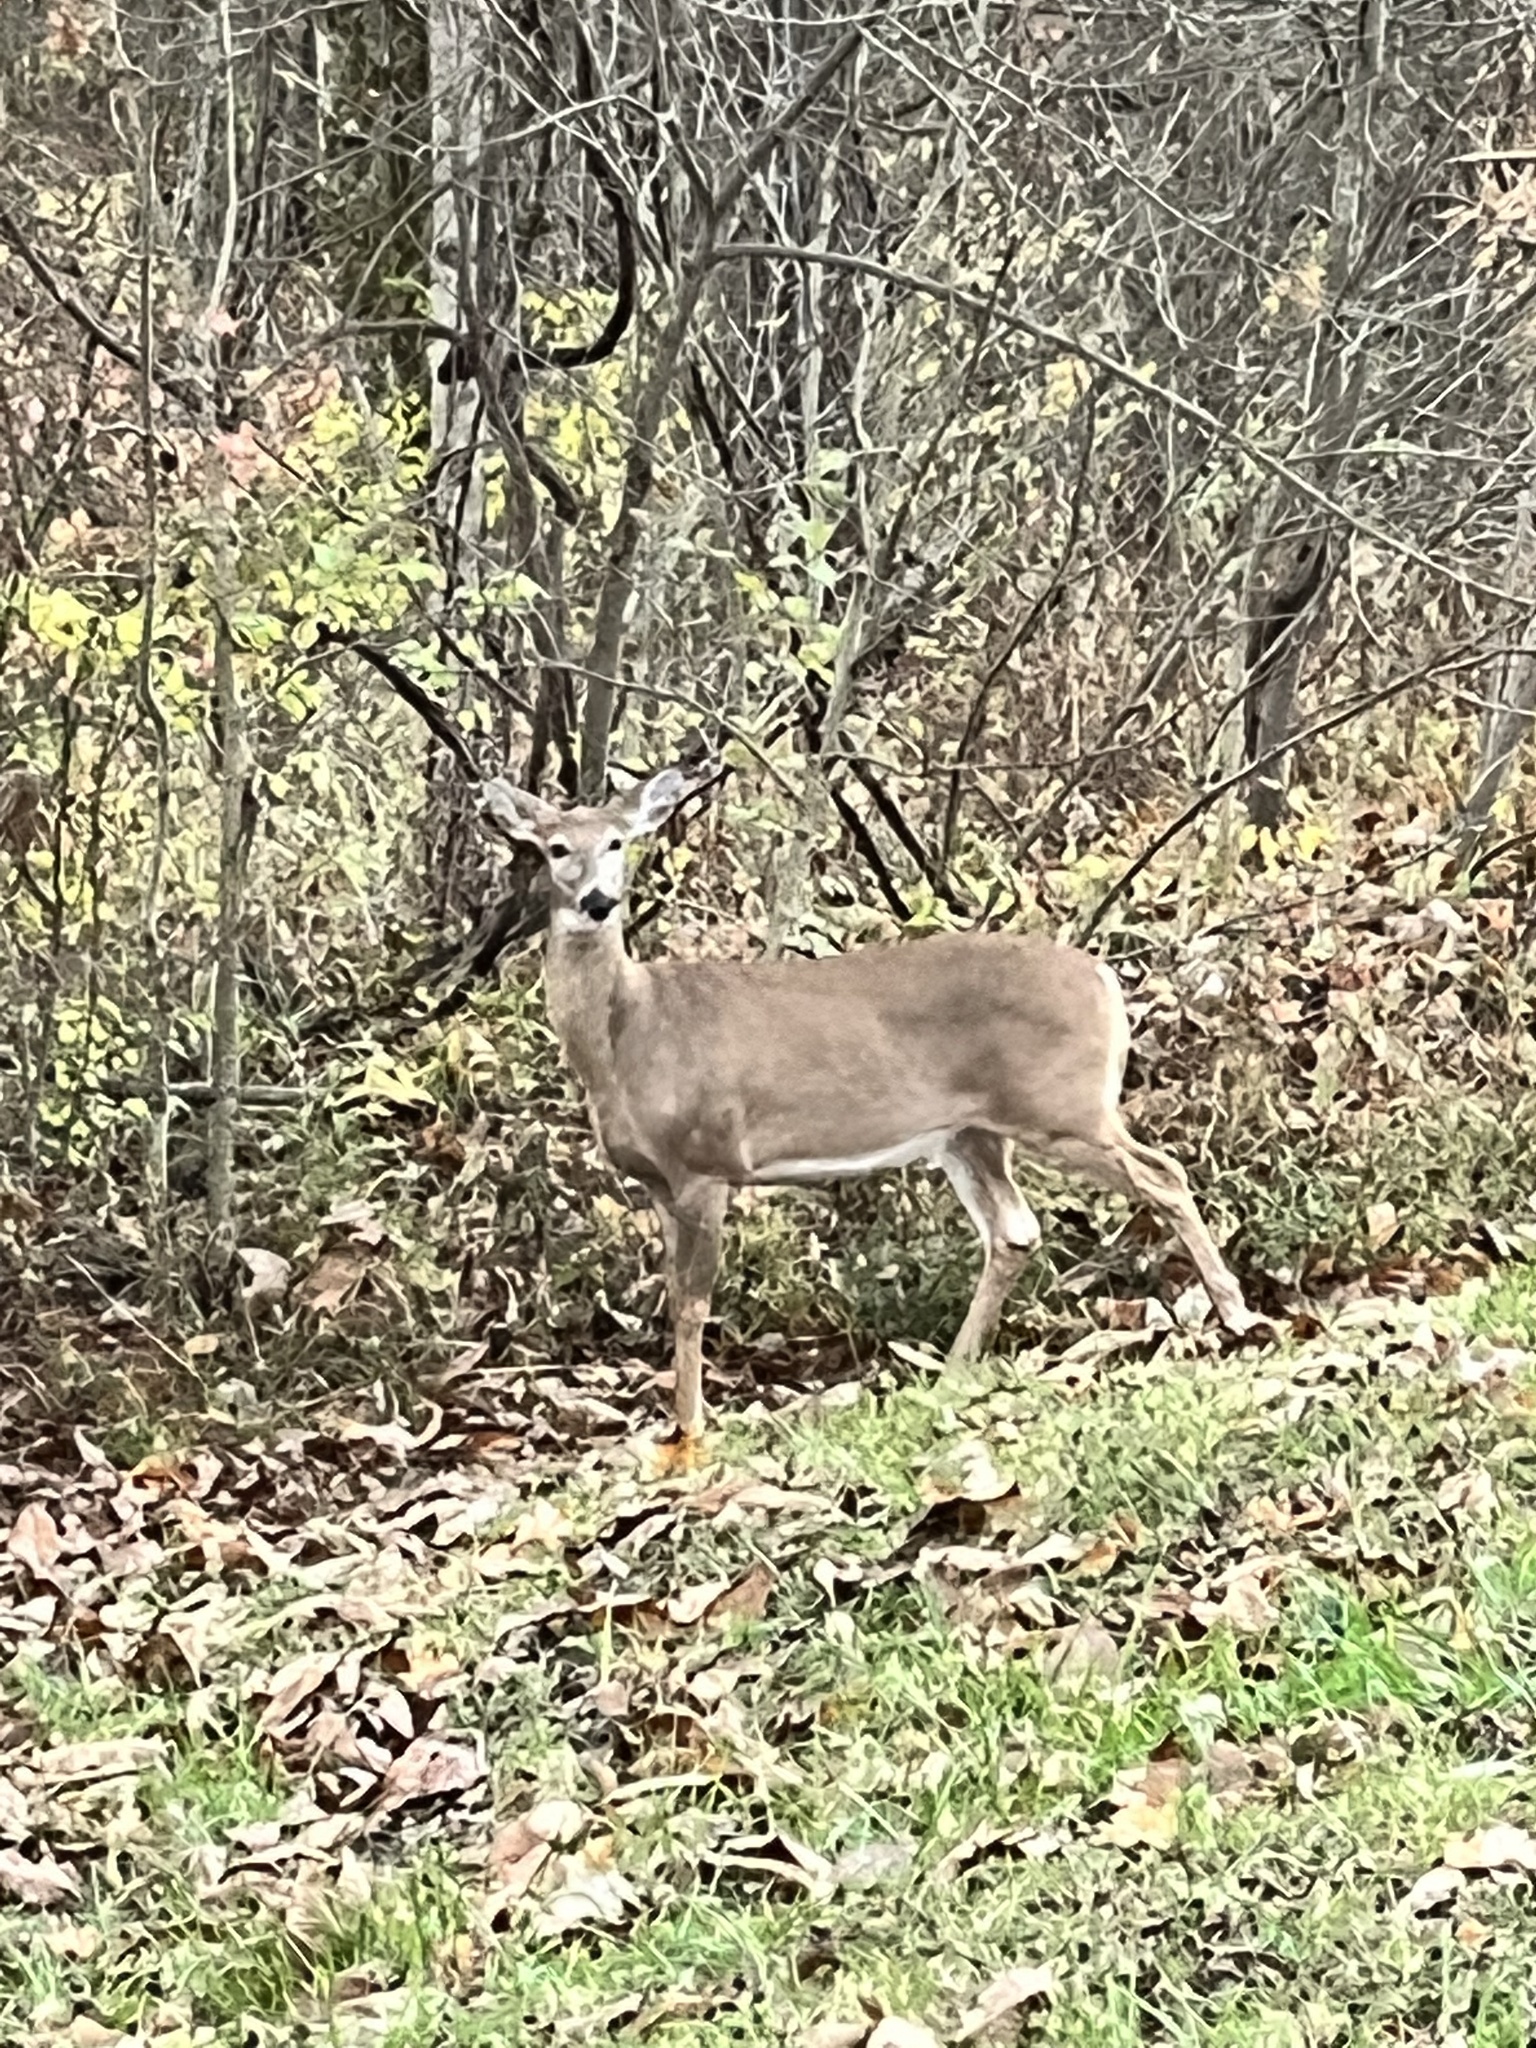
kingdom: Animalia
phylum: Chordata
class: Mammalia
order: Artiodactyla
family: Cervidae
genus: Odocoileus
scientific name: Odocoileus virginianus
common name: White-tailed deer
